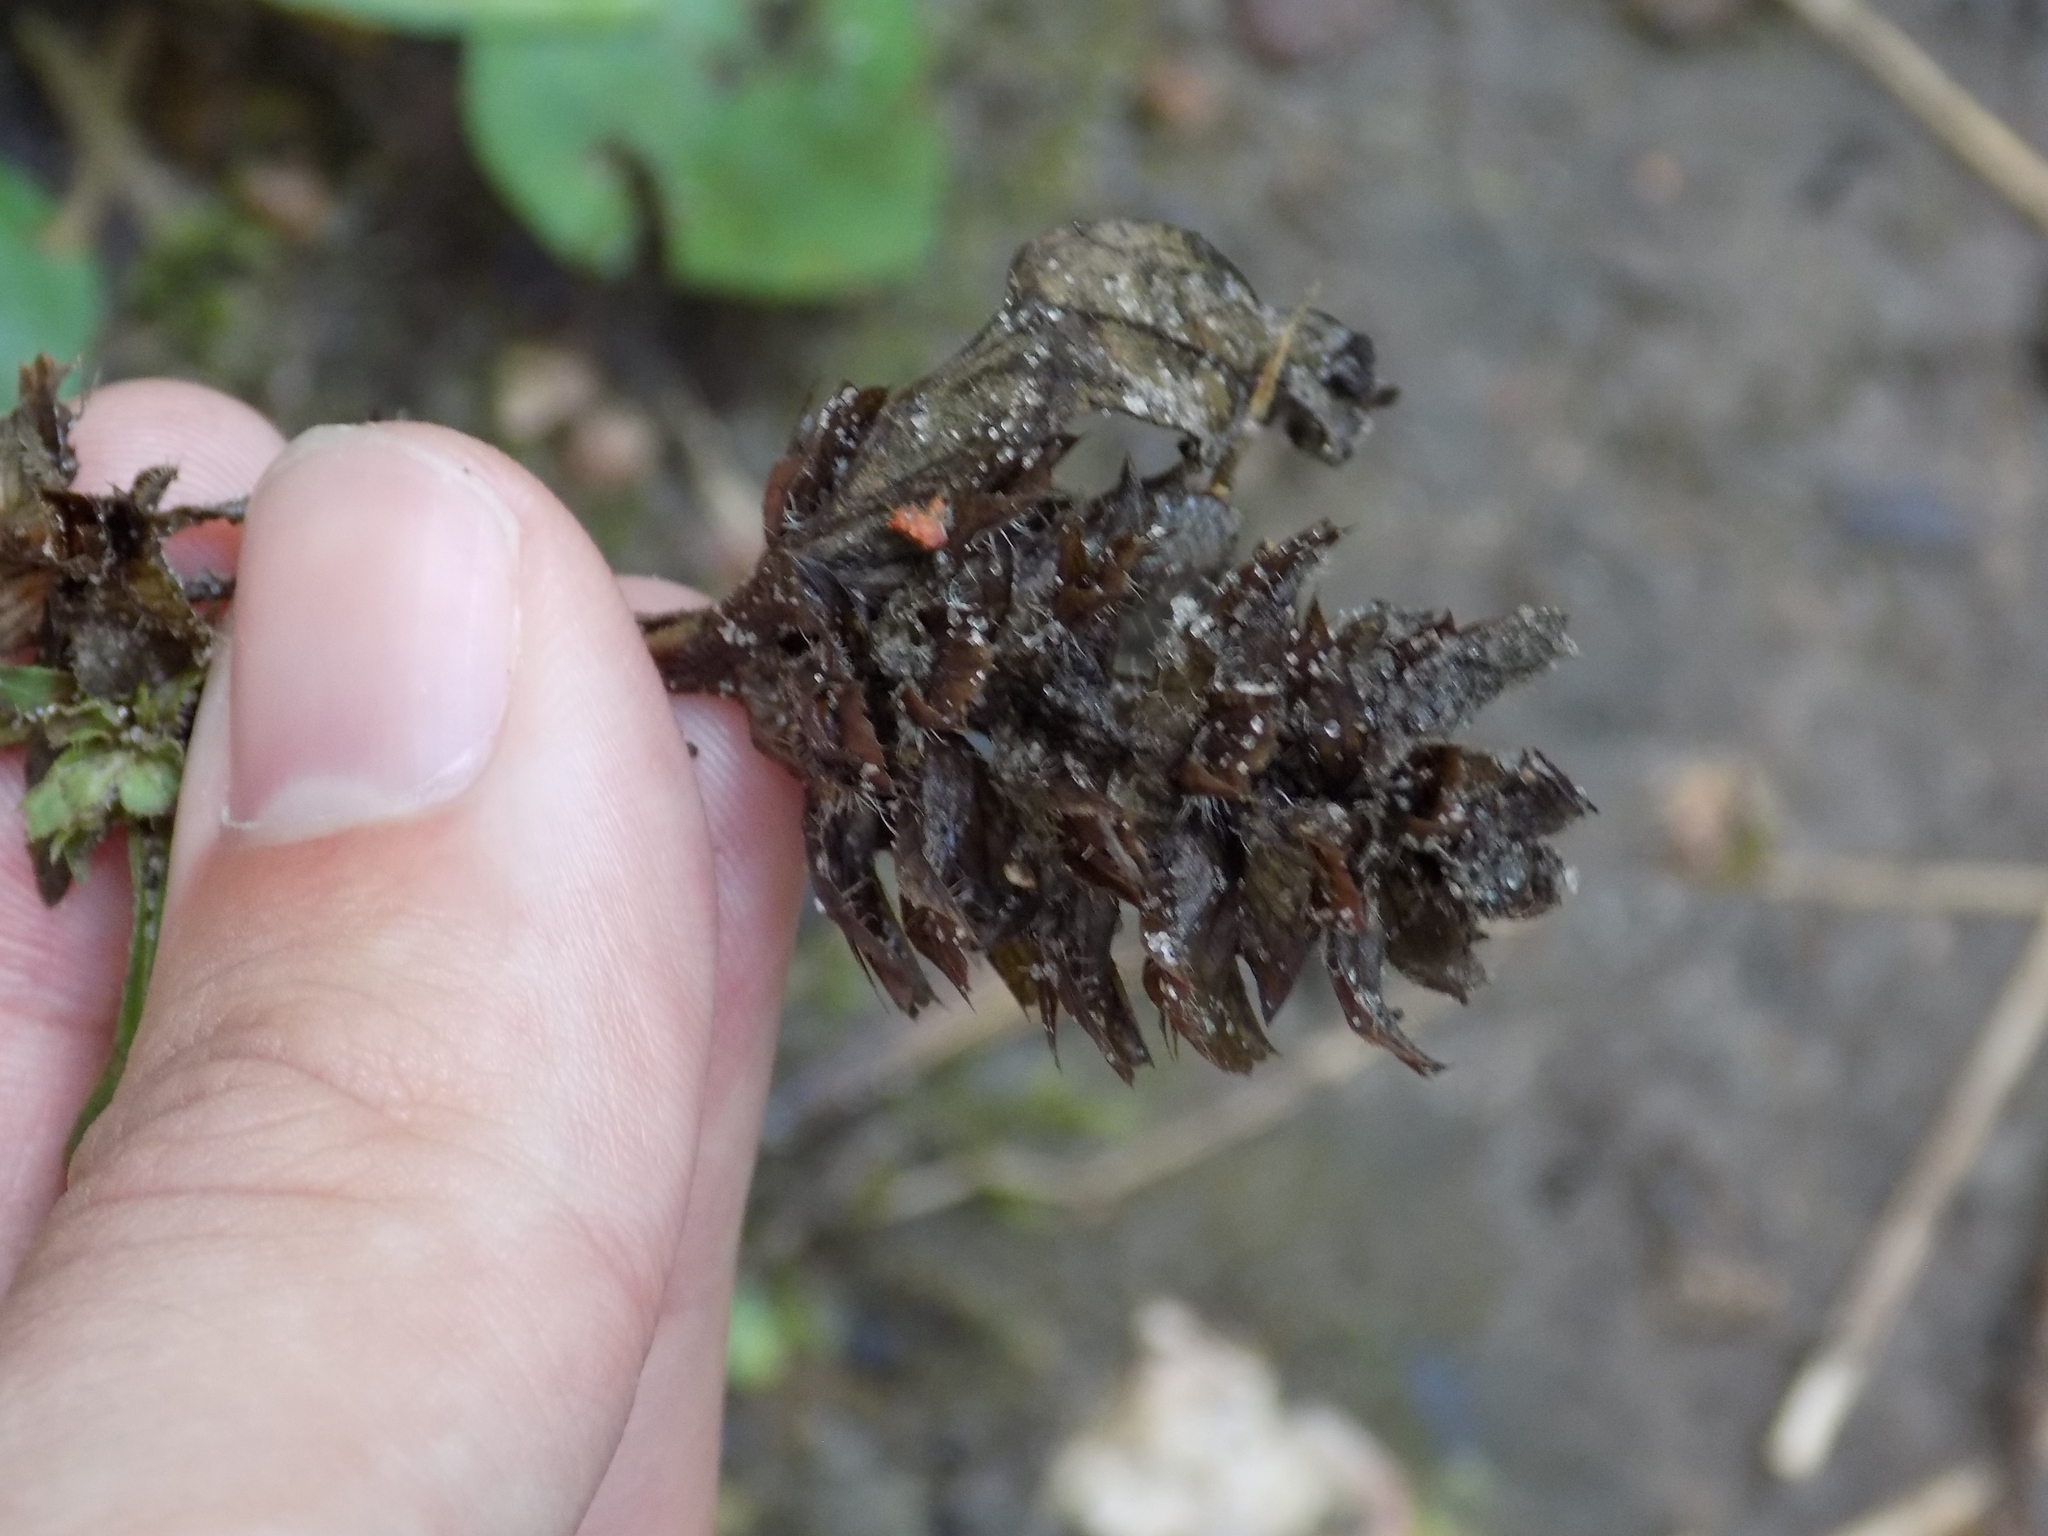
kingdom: Plantae
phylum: Tracheophyta
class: Magnoliopsida
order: Lamiales
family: Lamiaceae
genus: Prunella
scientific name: Prunella vulgaris
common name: Heal-all
